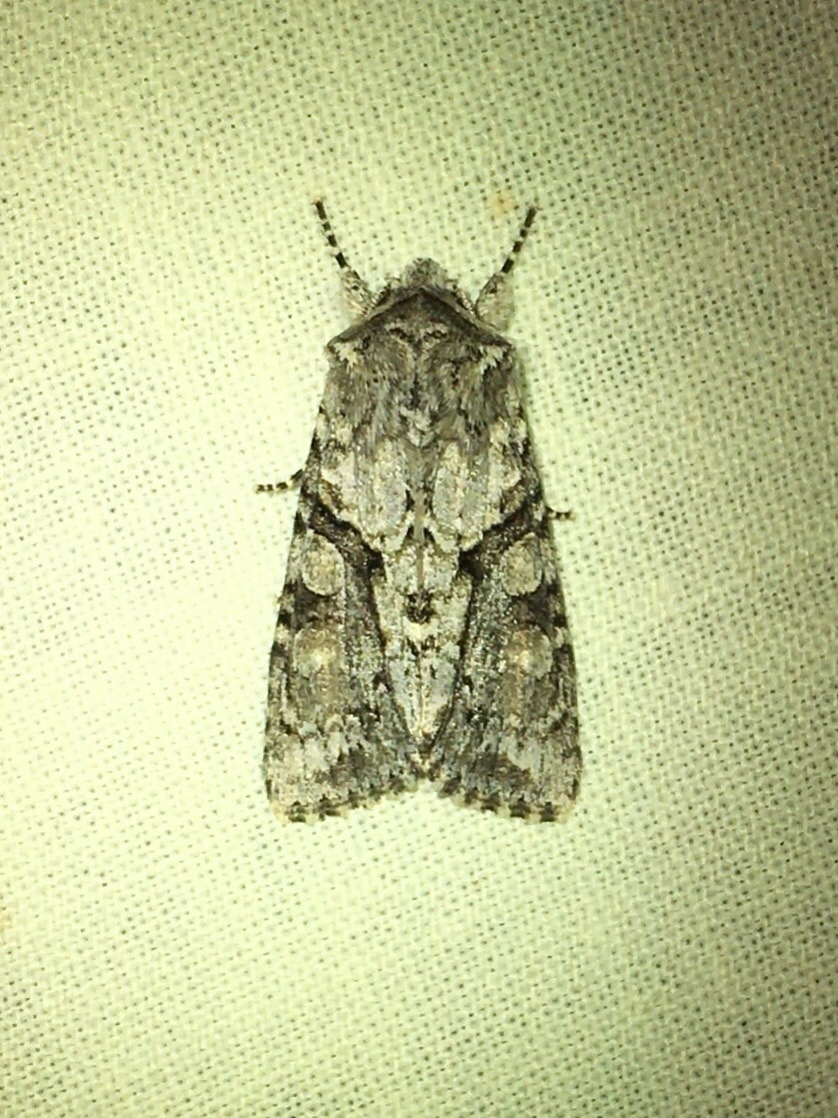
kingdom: Animalia
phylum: Arthropoda
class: Insecta
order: Lepidoptera
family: Noctuidae
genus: Achatia
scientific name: Achatia distincta
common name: Distinct quaker
